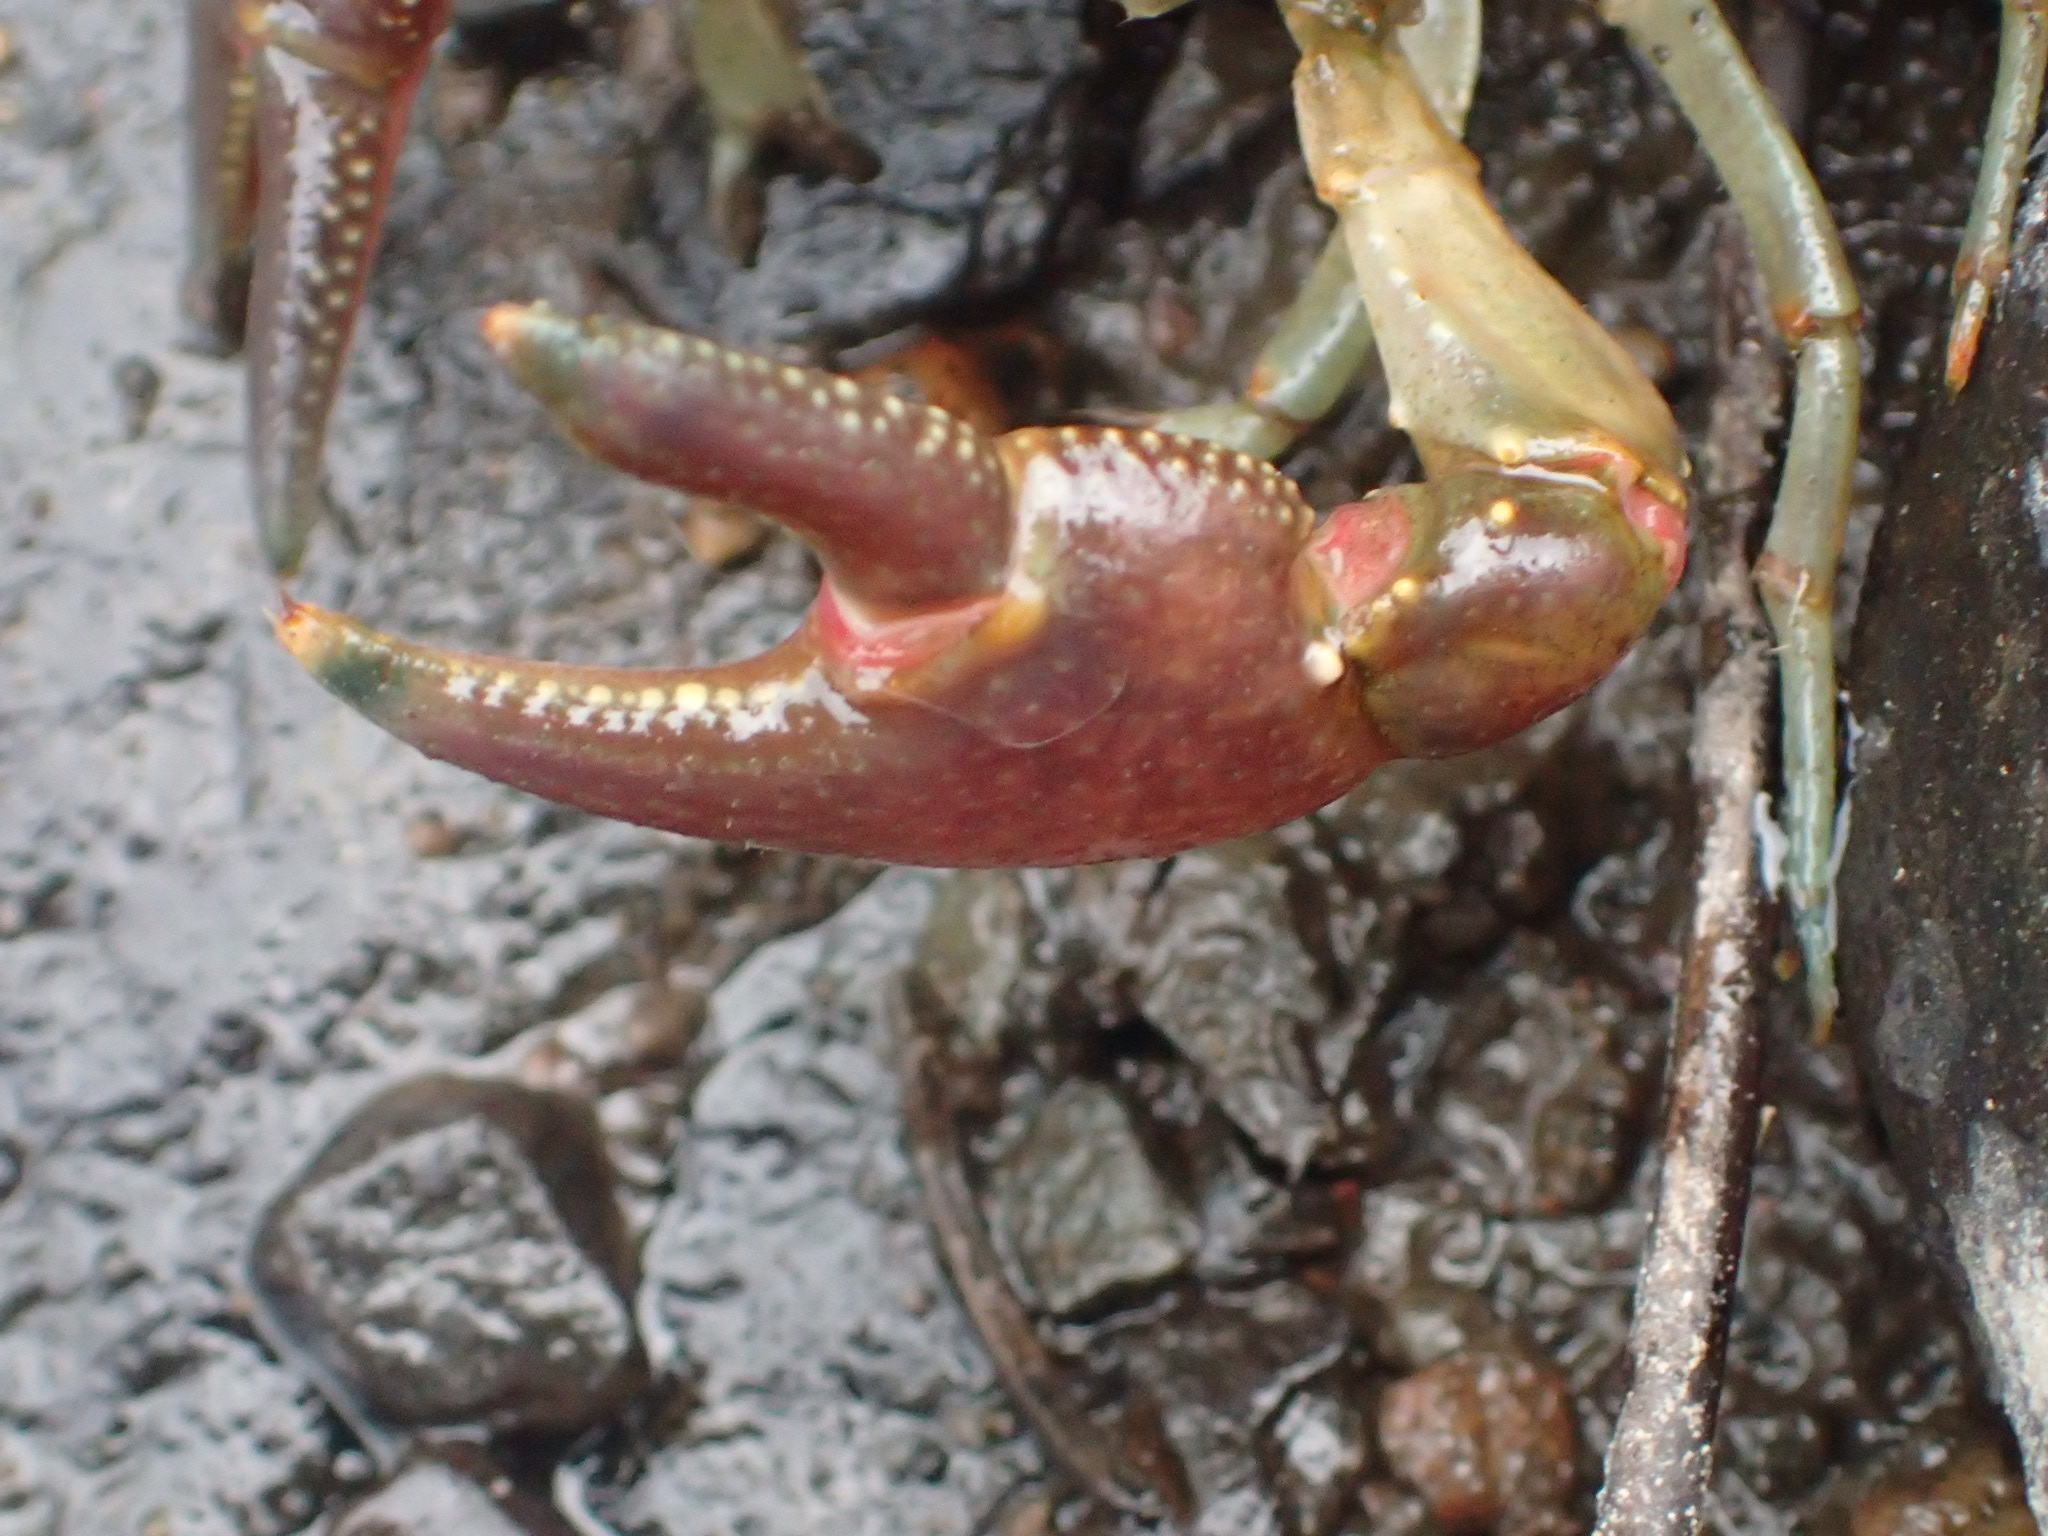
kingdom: Animalia
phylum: Arthropoda
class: Malacostraca
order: Decapoda
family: Cambaridae
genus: Faxonius
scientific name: Faxonius rusticus
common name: Rusty crayfish
